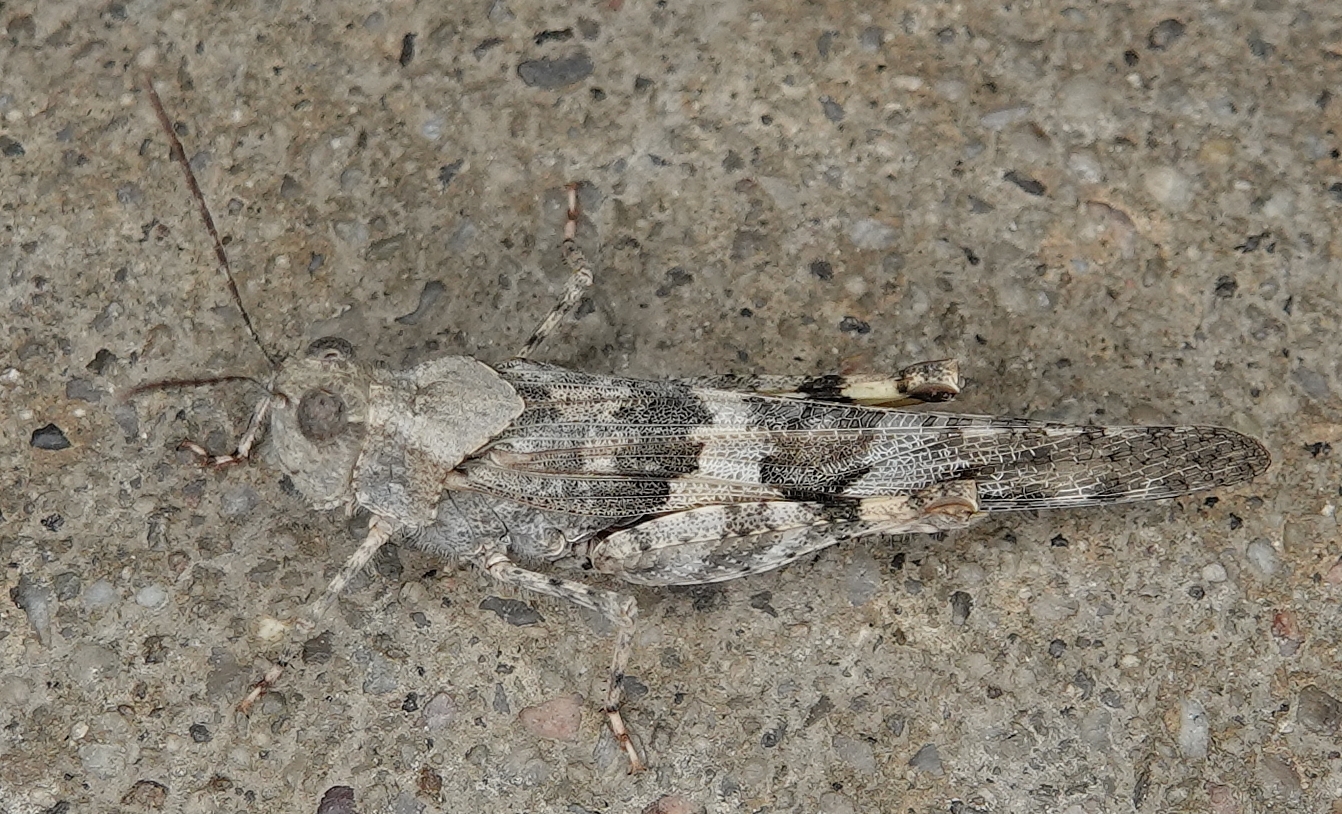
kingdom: Animalia
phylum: Arthropoda
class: Insecta
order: Orthoptera
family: Acrididae
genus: Trimerotropis
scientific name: Trimerotropis pallidipennis
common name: Pallid-winged grasshopper
